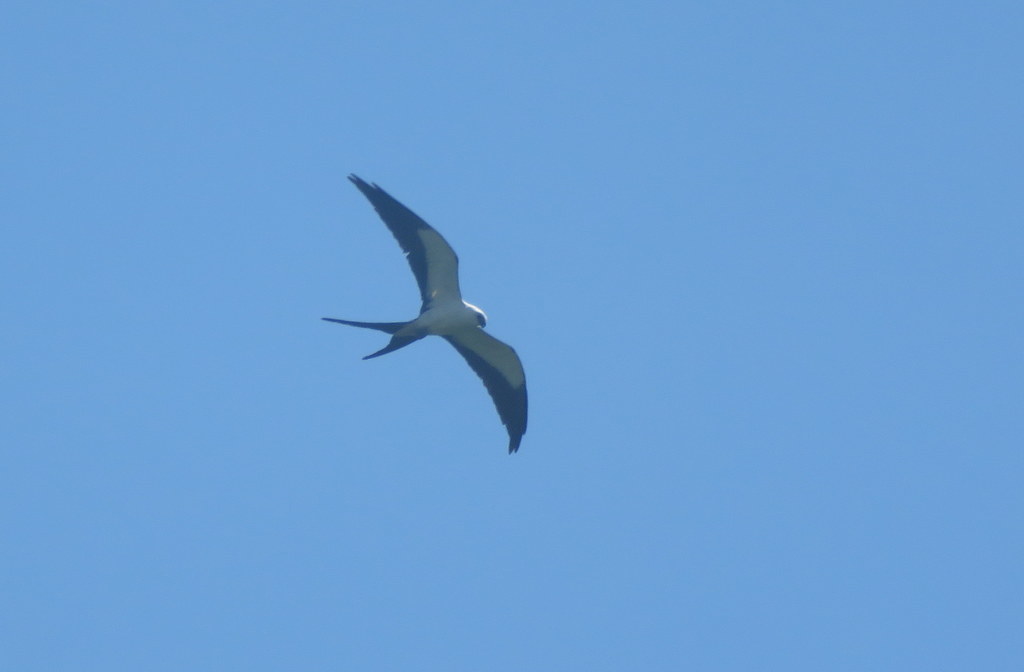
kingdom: Animalia
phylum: Chordata
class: Aves
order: Accipitriformes
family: Accipitridae
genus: Elanoides
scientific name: Elanoides forficatus
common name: Swallow-tailed kite
